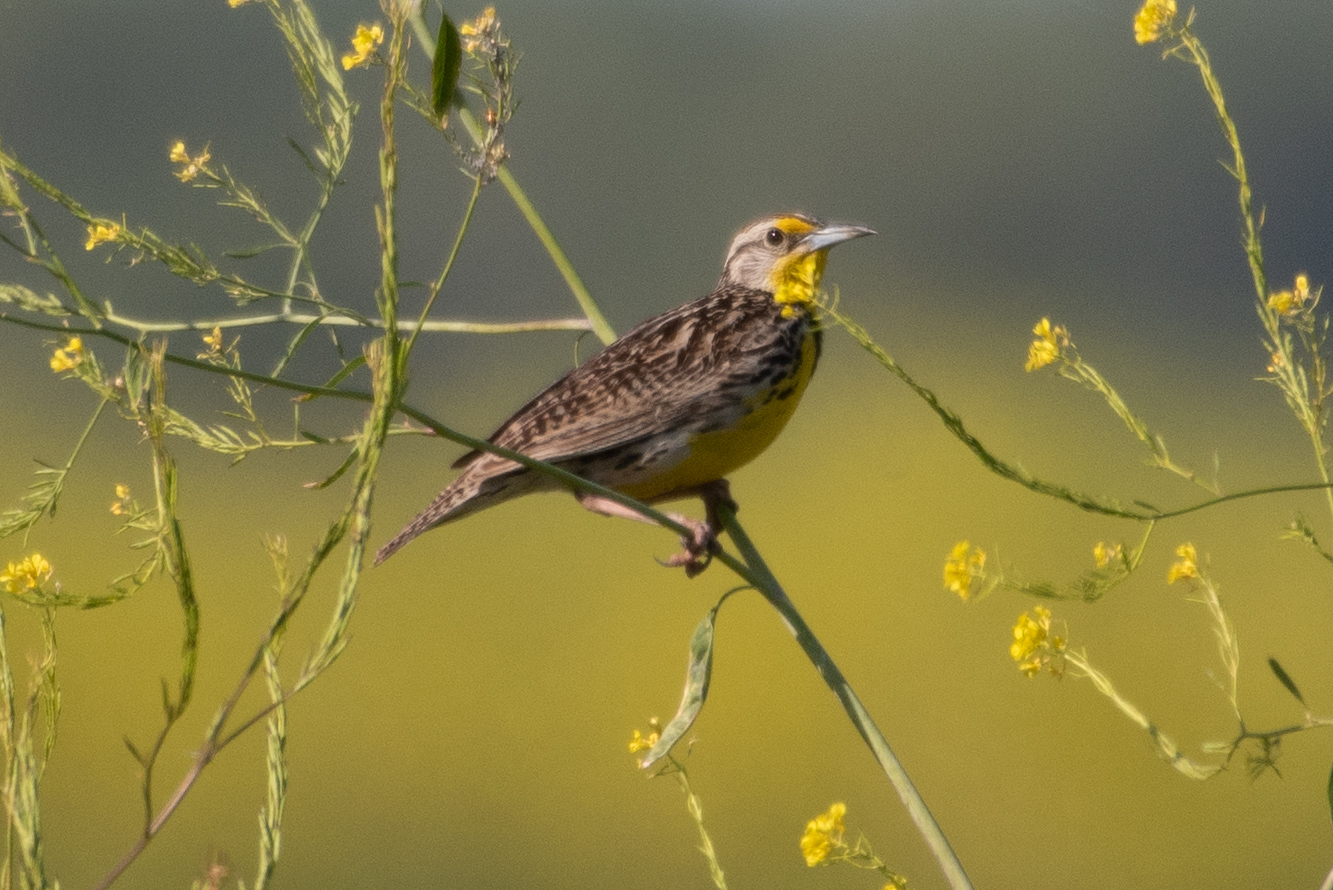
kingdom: Animalia
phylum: Chordata
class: Aves
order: Passeriformes
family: Icteridae
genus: Sturnella
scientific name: Sturnella neglecta
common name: Western meadowlark
